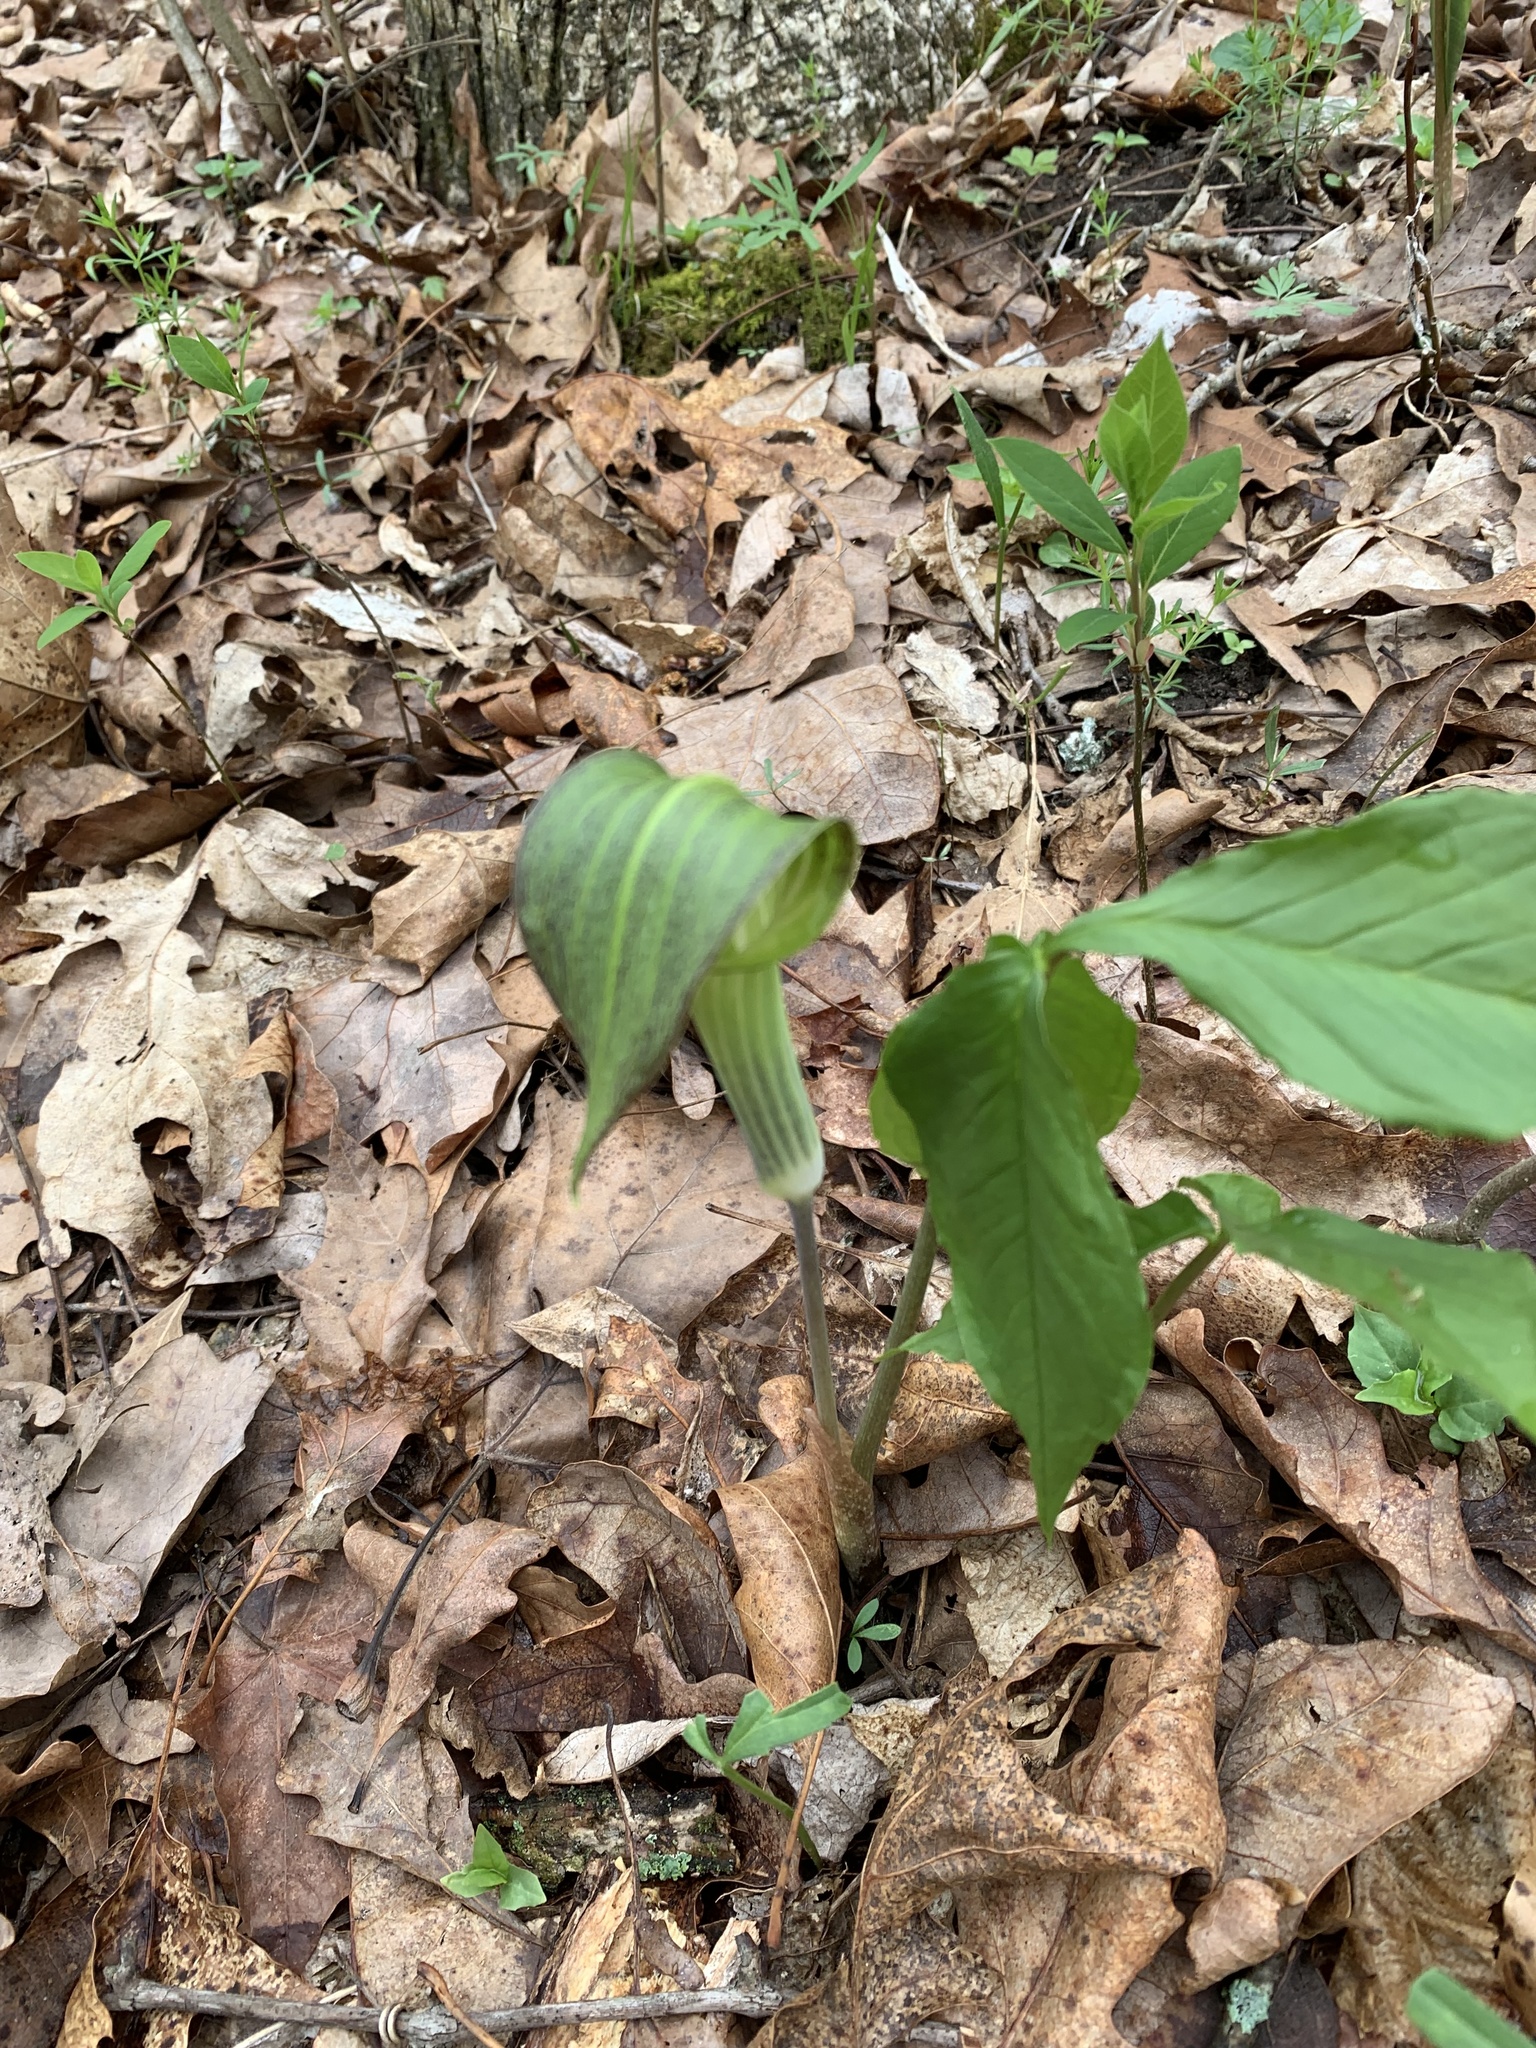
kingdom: Plantae
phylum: Tracheophyta
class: Liliopsida
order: Alismatales
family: Araceae
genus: Arisaema
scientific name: Arisaema triphyllum
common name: Jack-in-the-pulpit
